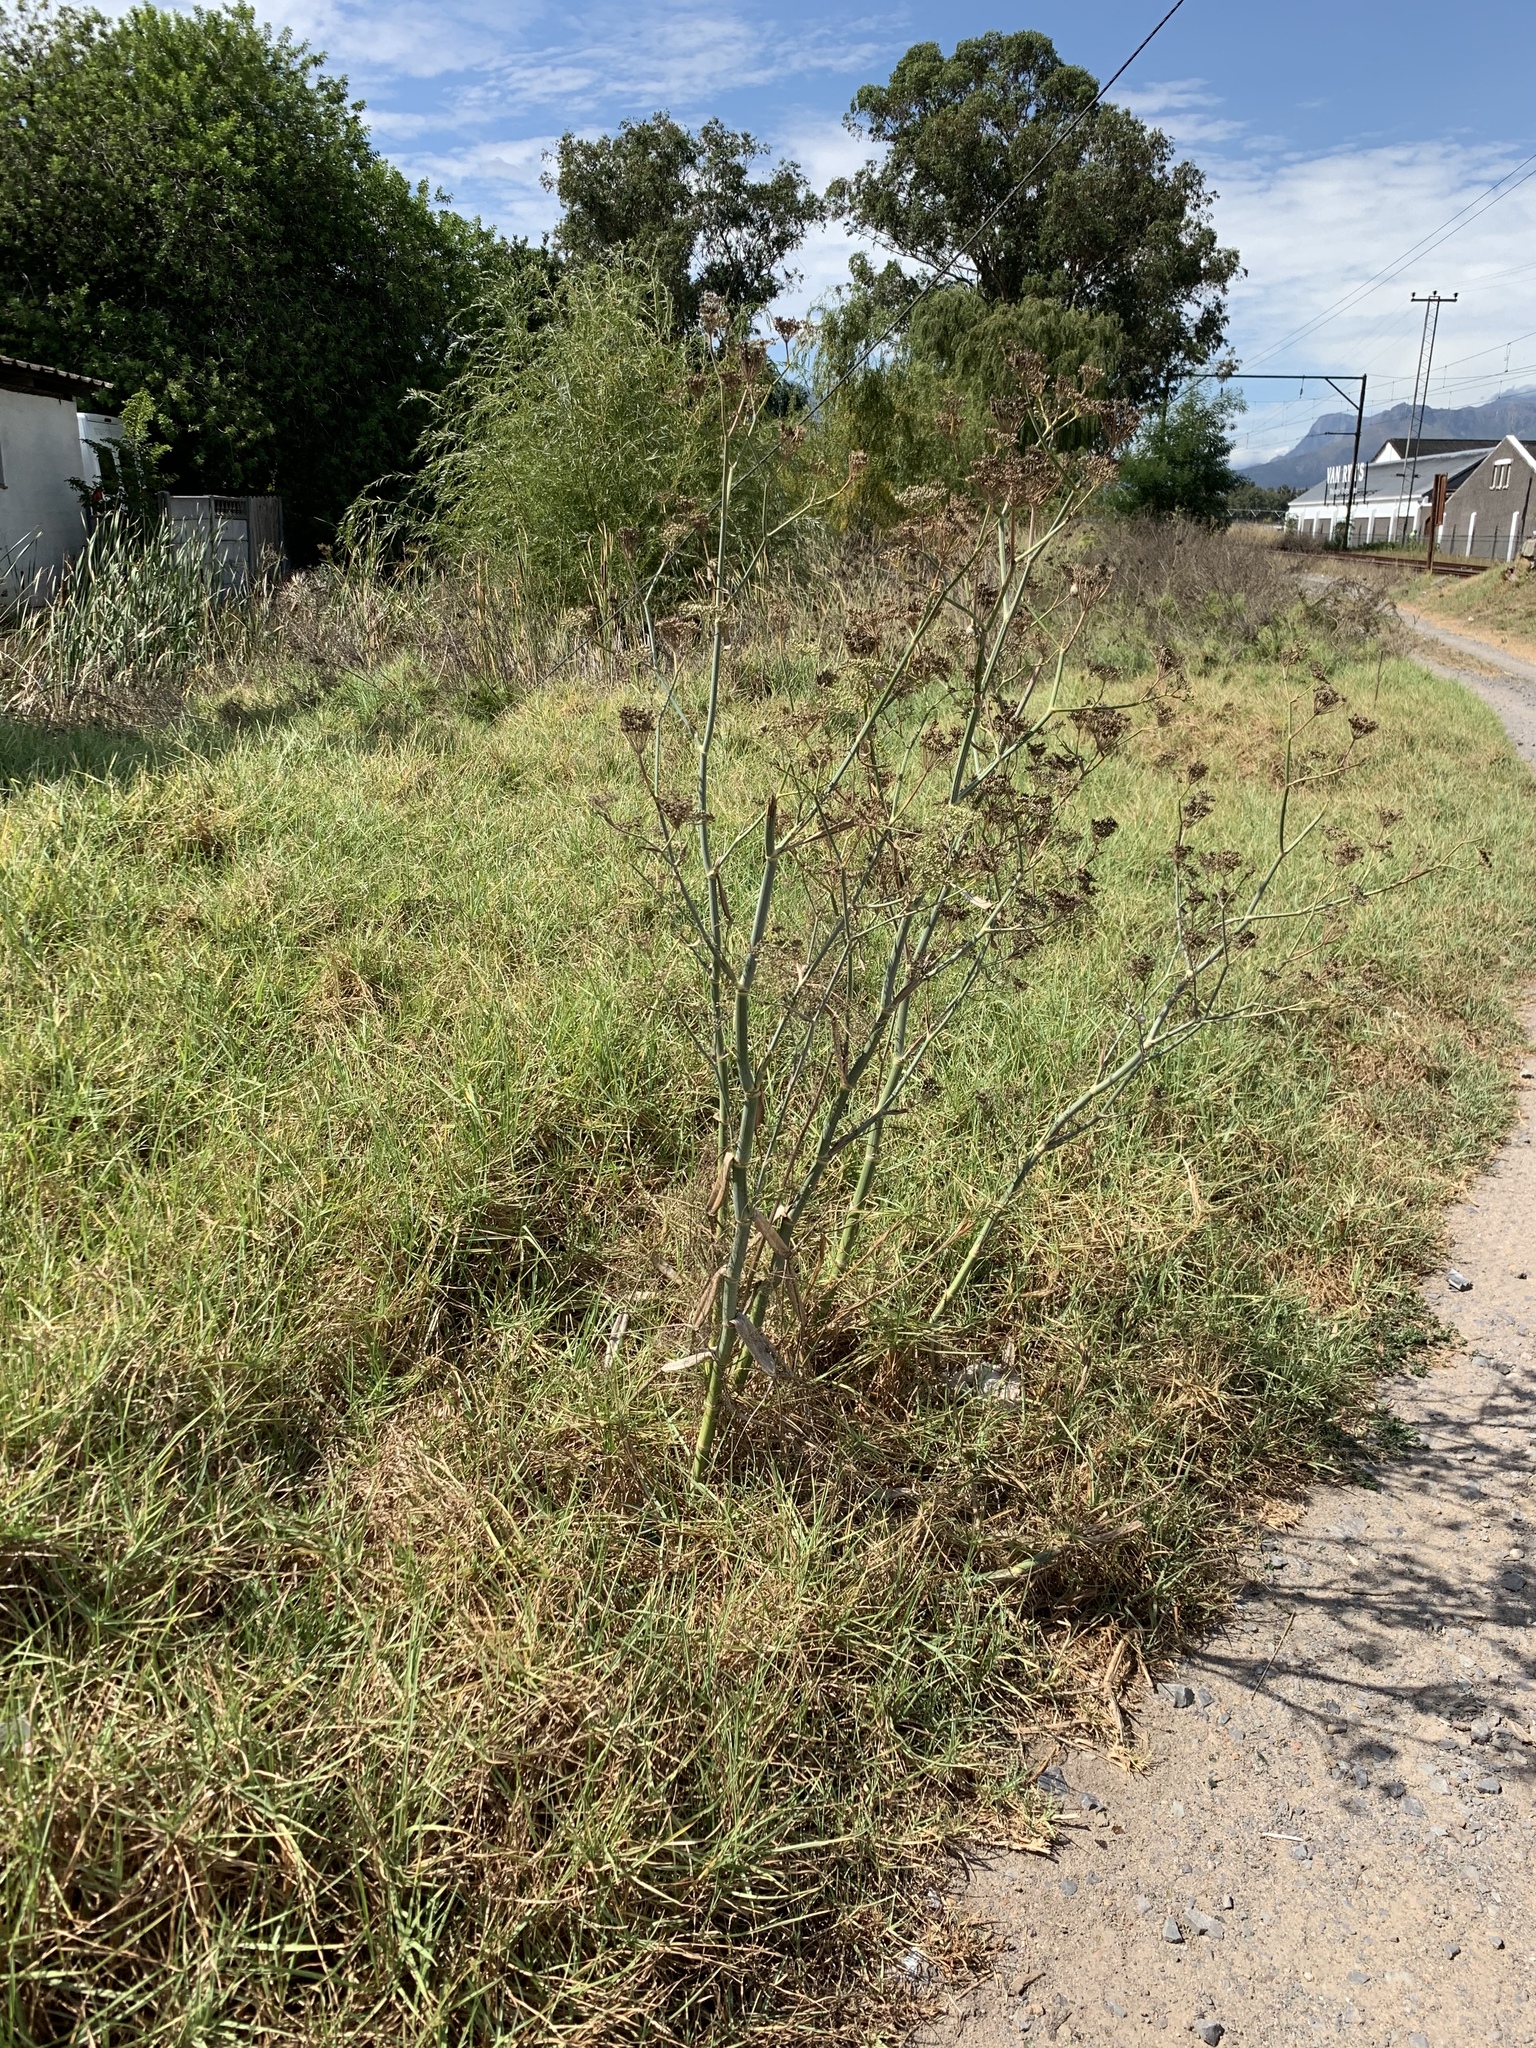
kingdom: Plantae
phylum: Tracheophyta
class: Magnoliopsida
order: Apiales
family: Apiaceae
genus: Foeniculum
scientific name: Foeniculum vulgare
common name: Fennel
